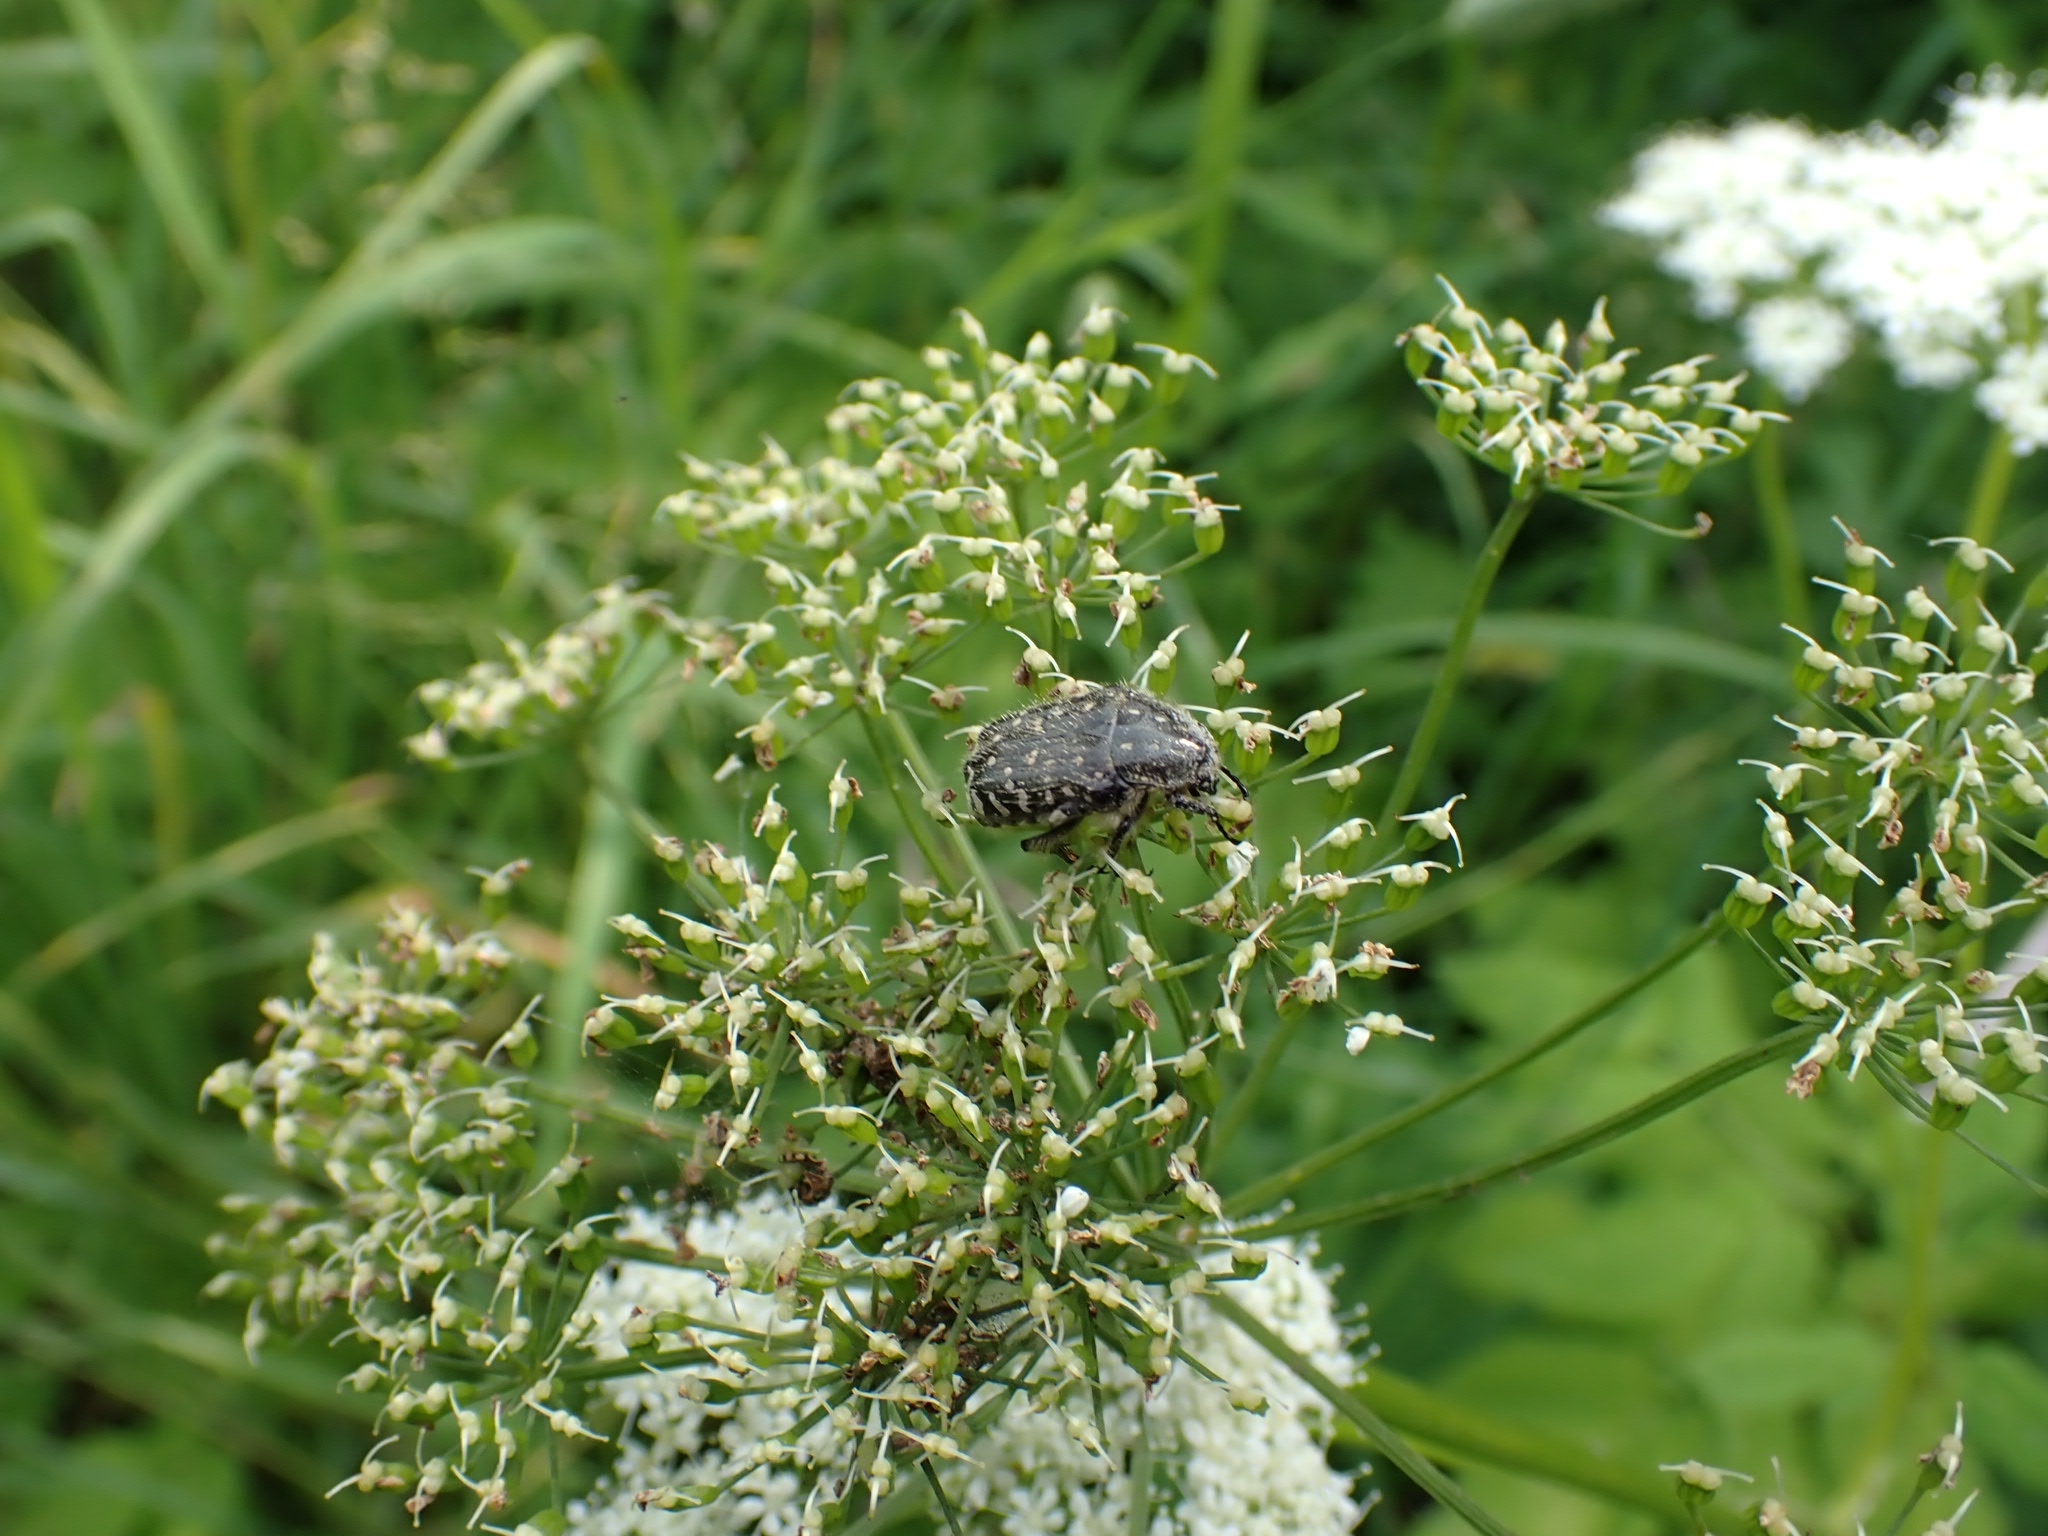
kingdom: Animalia
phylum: Arthropoda
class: Insecta
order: Coleoptera
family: Scarabaeidae
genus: Oxythyrea
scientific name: Oxythyrea funesta
